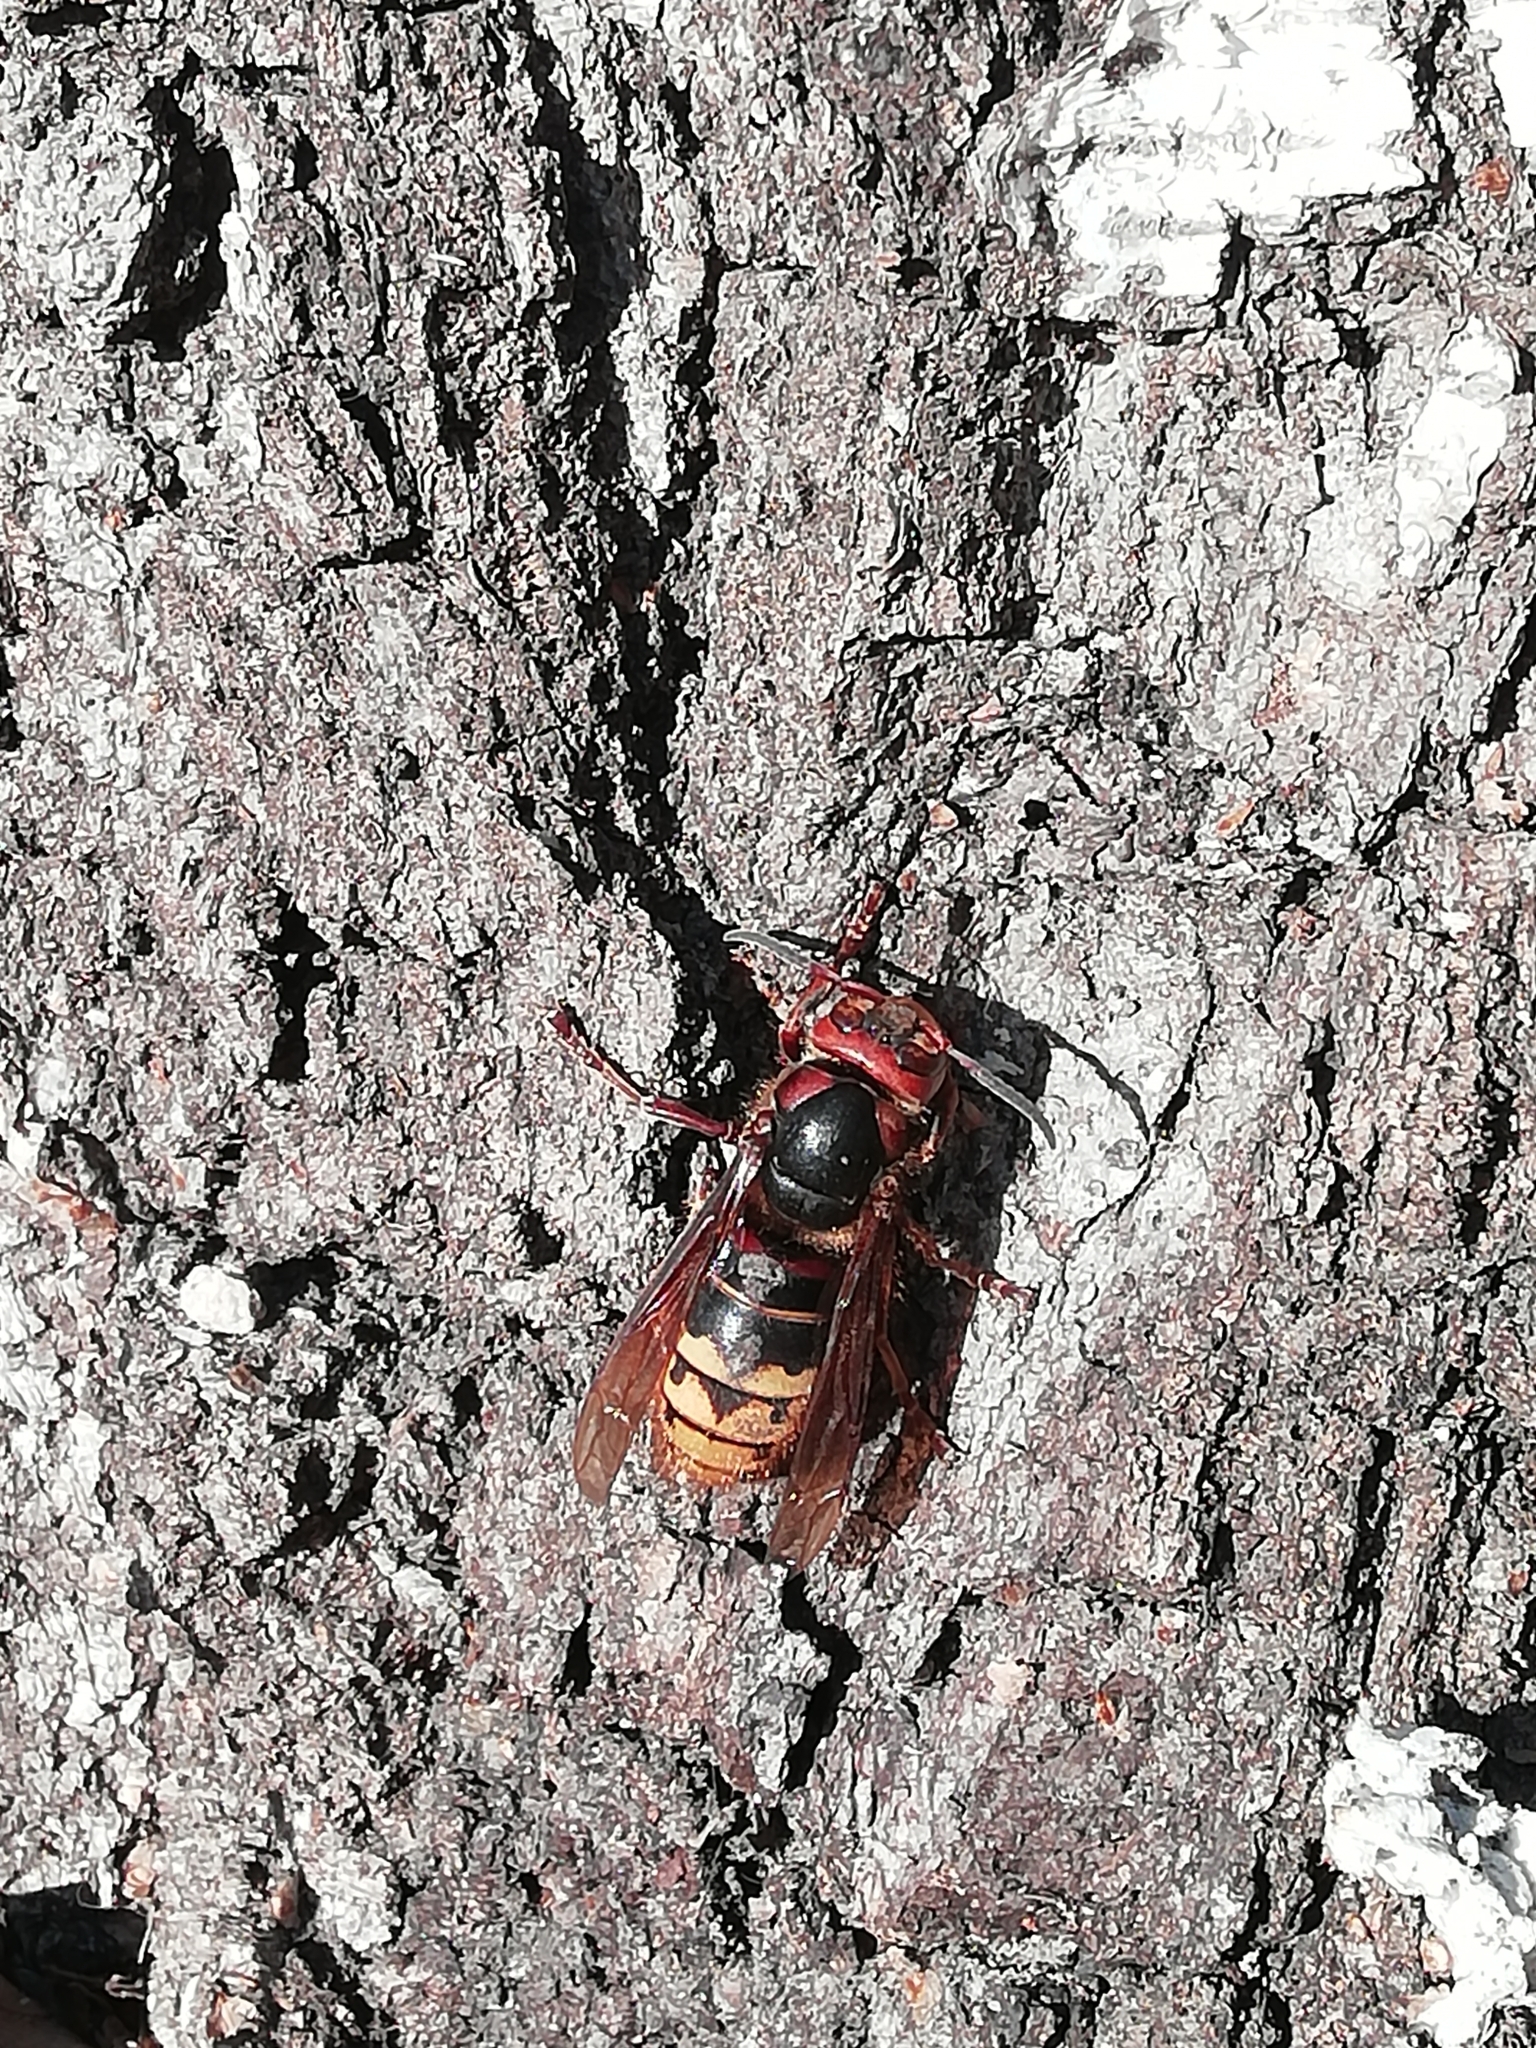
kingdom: Animalia
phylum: Arthropoda
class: Insecta
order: Hymenoptera
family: Vespidae
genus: Vespa
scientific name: Vespa crabro
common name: Hornet
